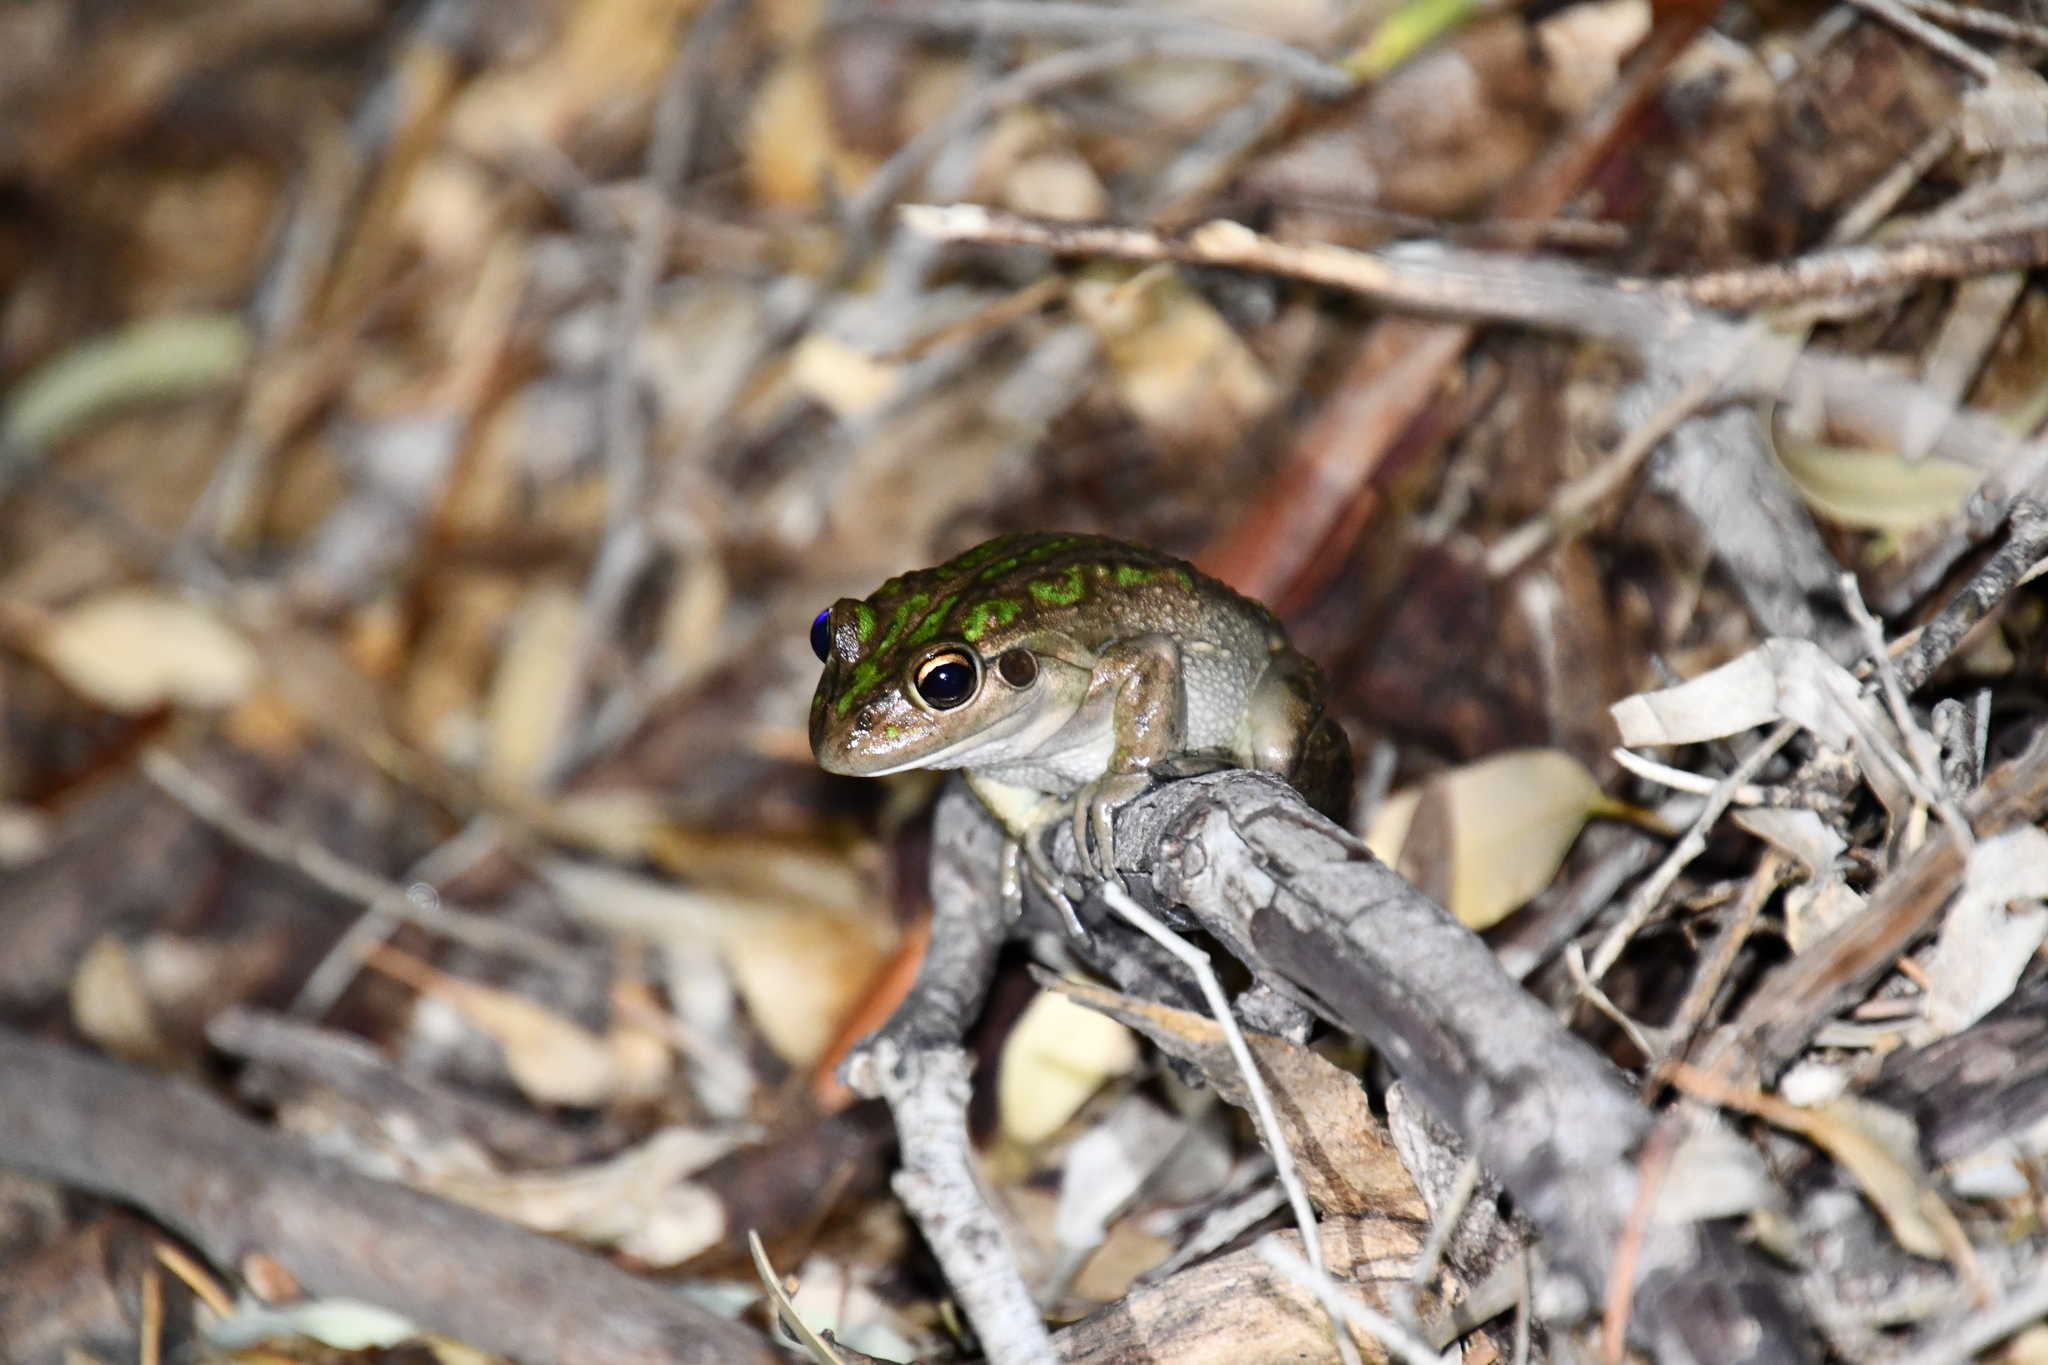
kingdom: Animalia
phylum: Chordata
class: Amphibia
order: Anura
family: Pelodryadidae
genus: Ranoidea
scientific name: Ranoidea moorei
